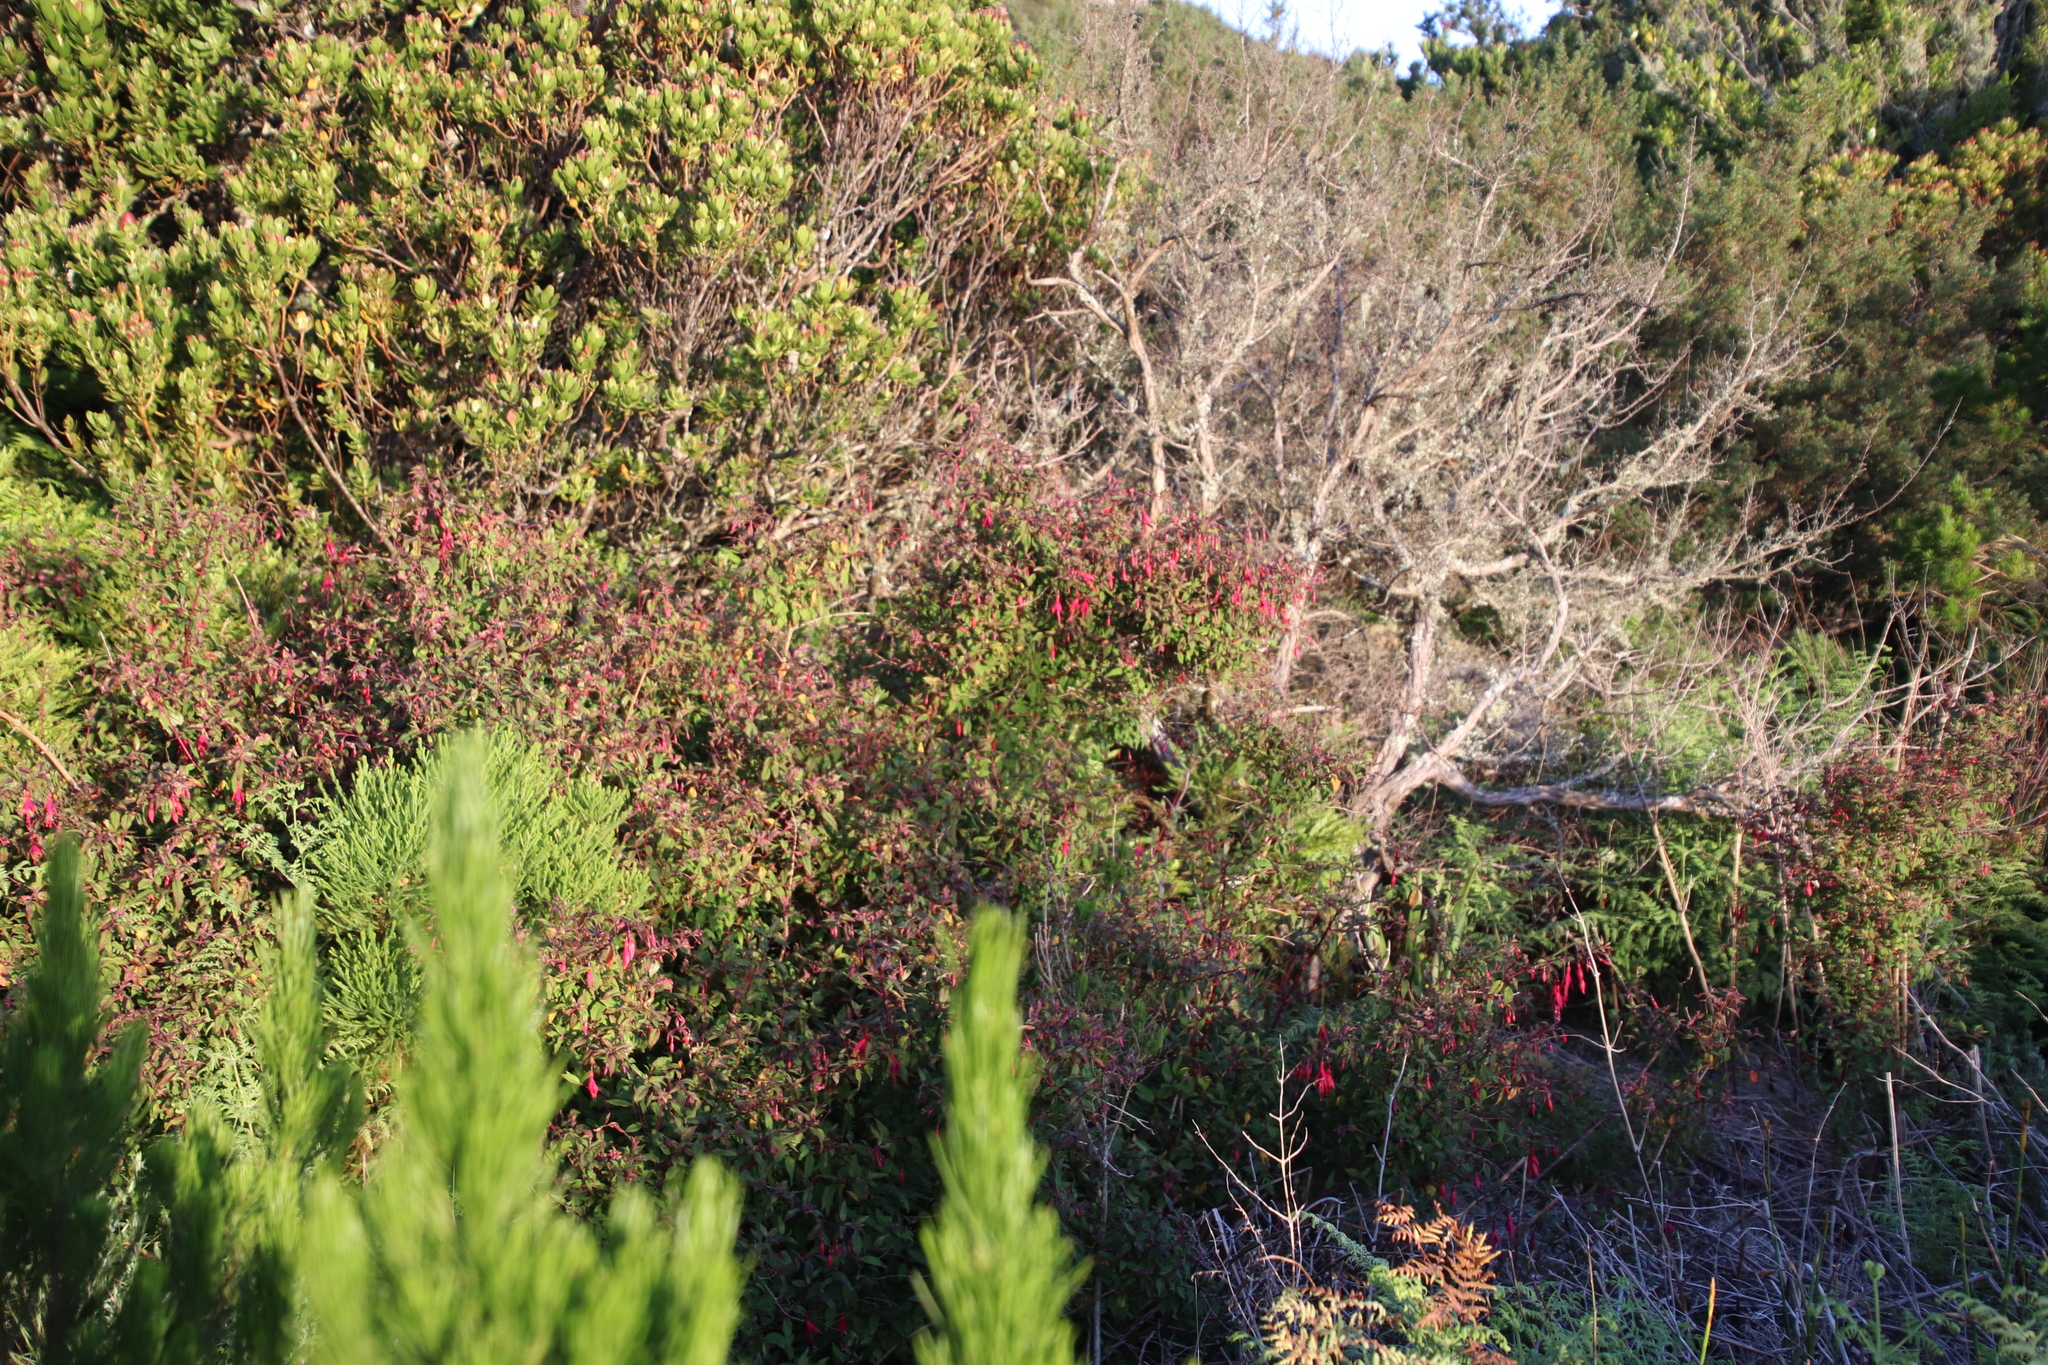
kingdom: Plantae
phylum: Tracheophyta
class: Magnoliopsida
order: Myrtales
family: Onagraceae
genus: Fuchsia
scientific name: Fuchsia magellanica
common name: Hardy fuchsia
